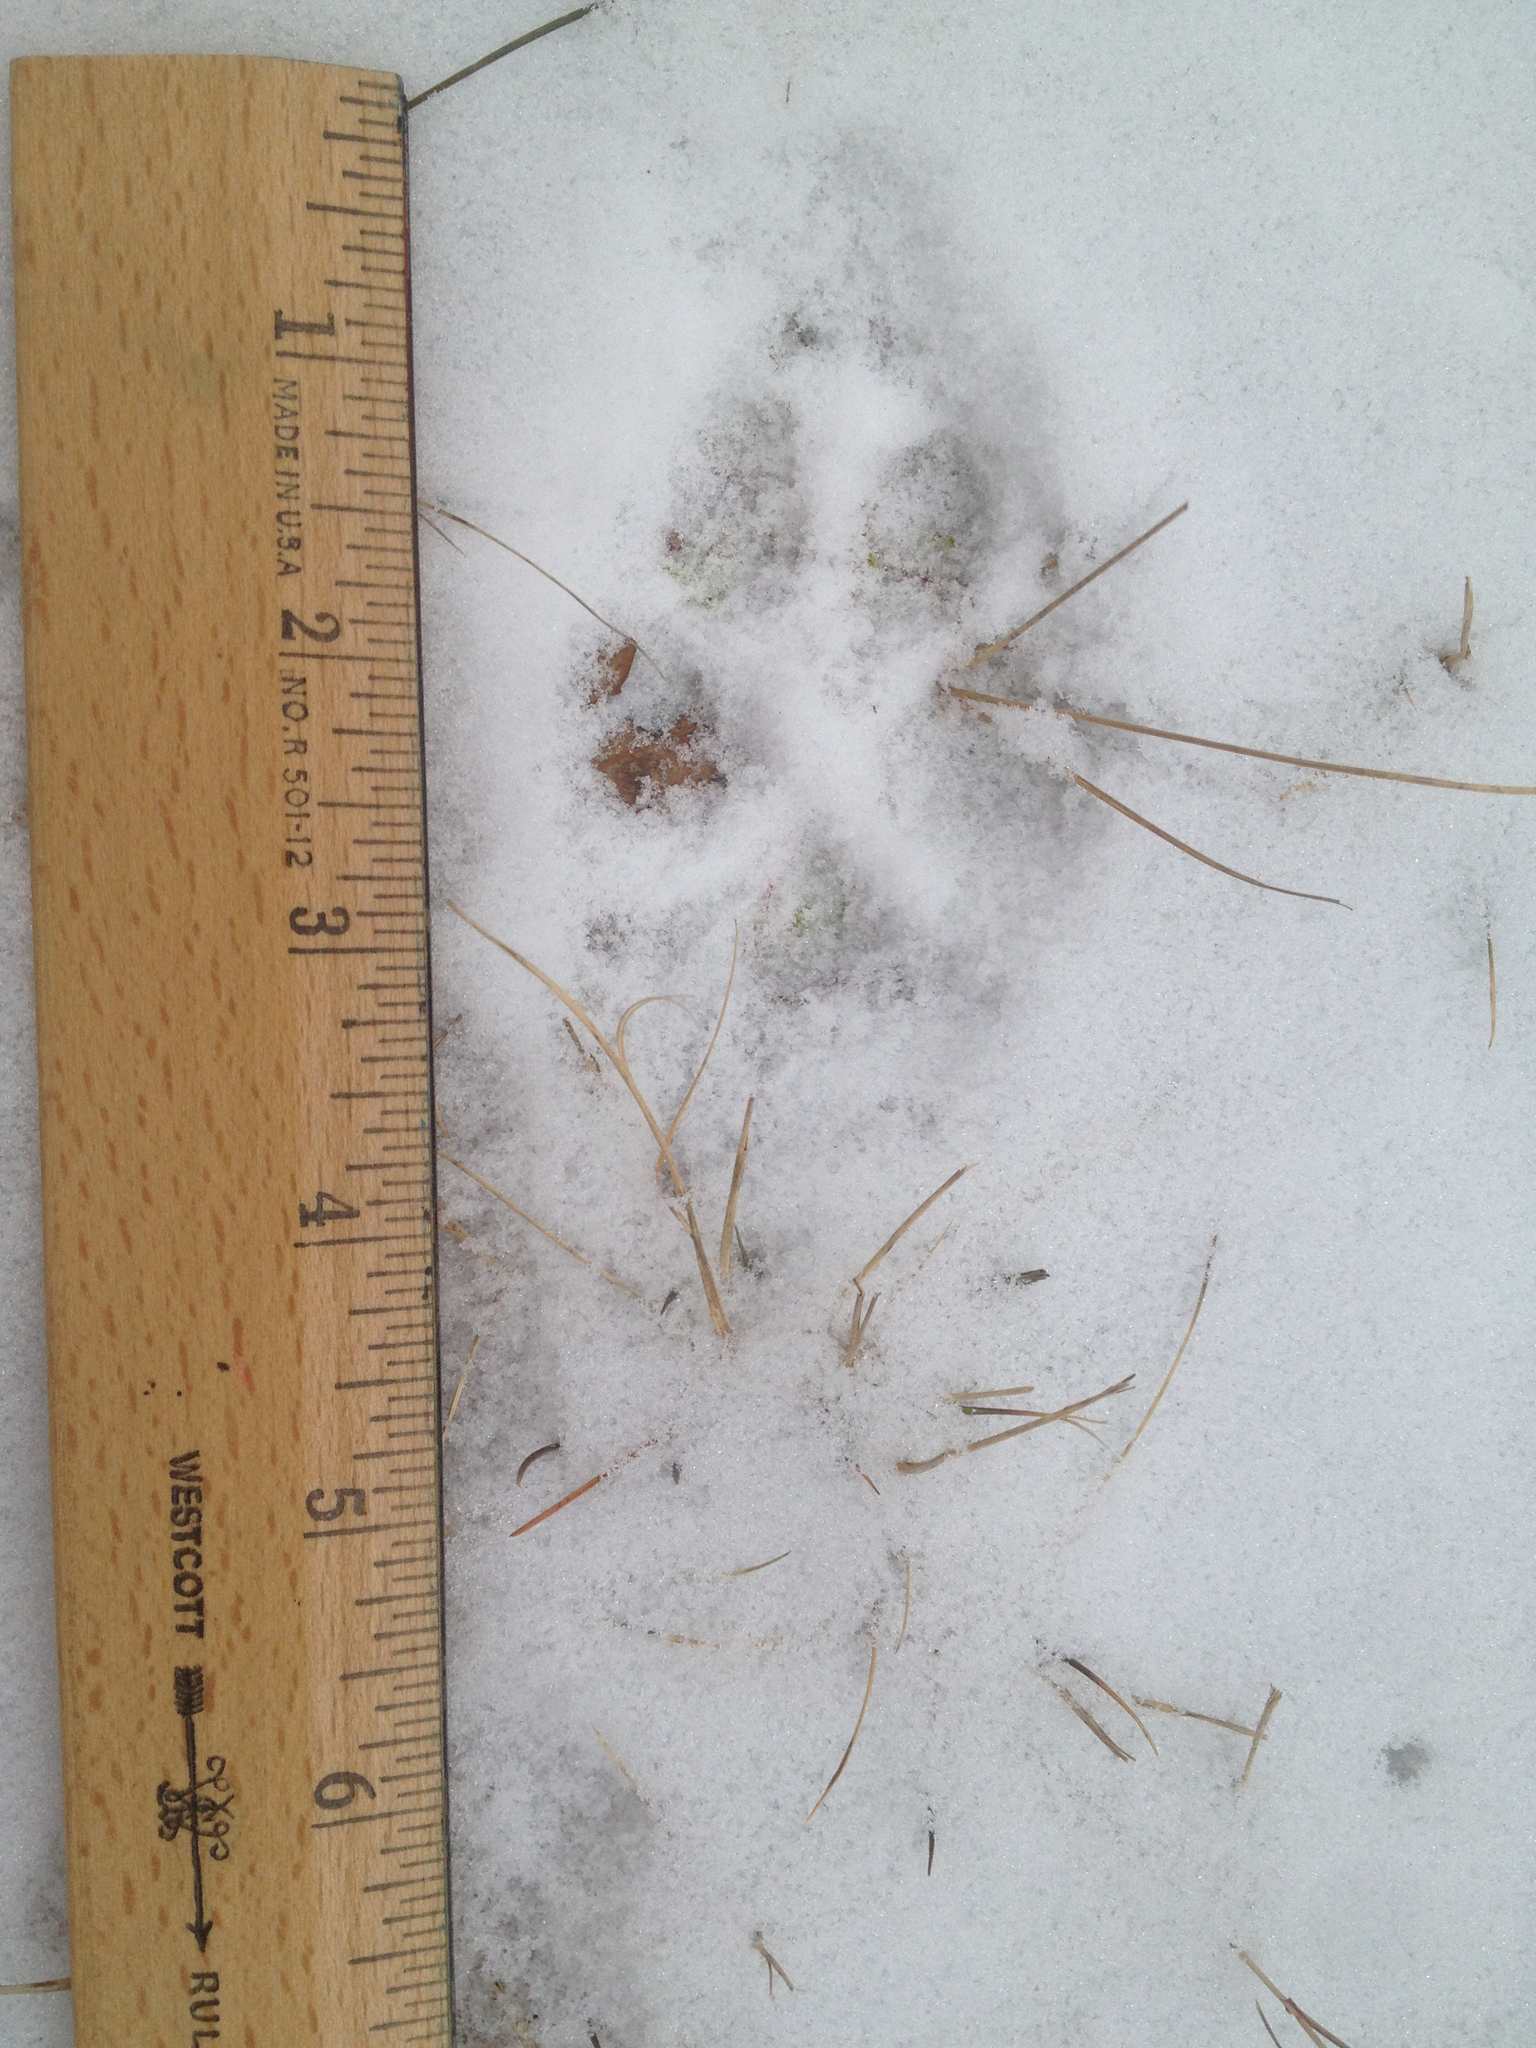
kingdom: Animalia
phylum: Chordata
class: Mammalia
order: Carnivora
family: Canidae
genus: Canis
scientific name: Canis latrans
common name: Coyote
